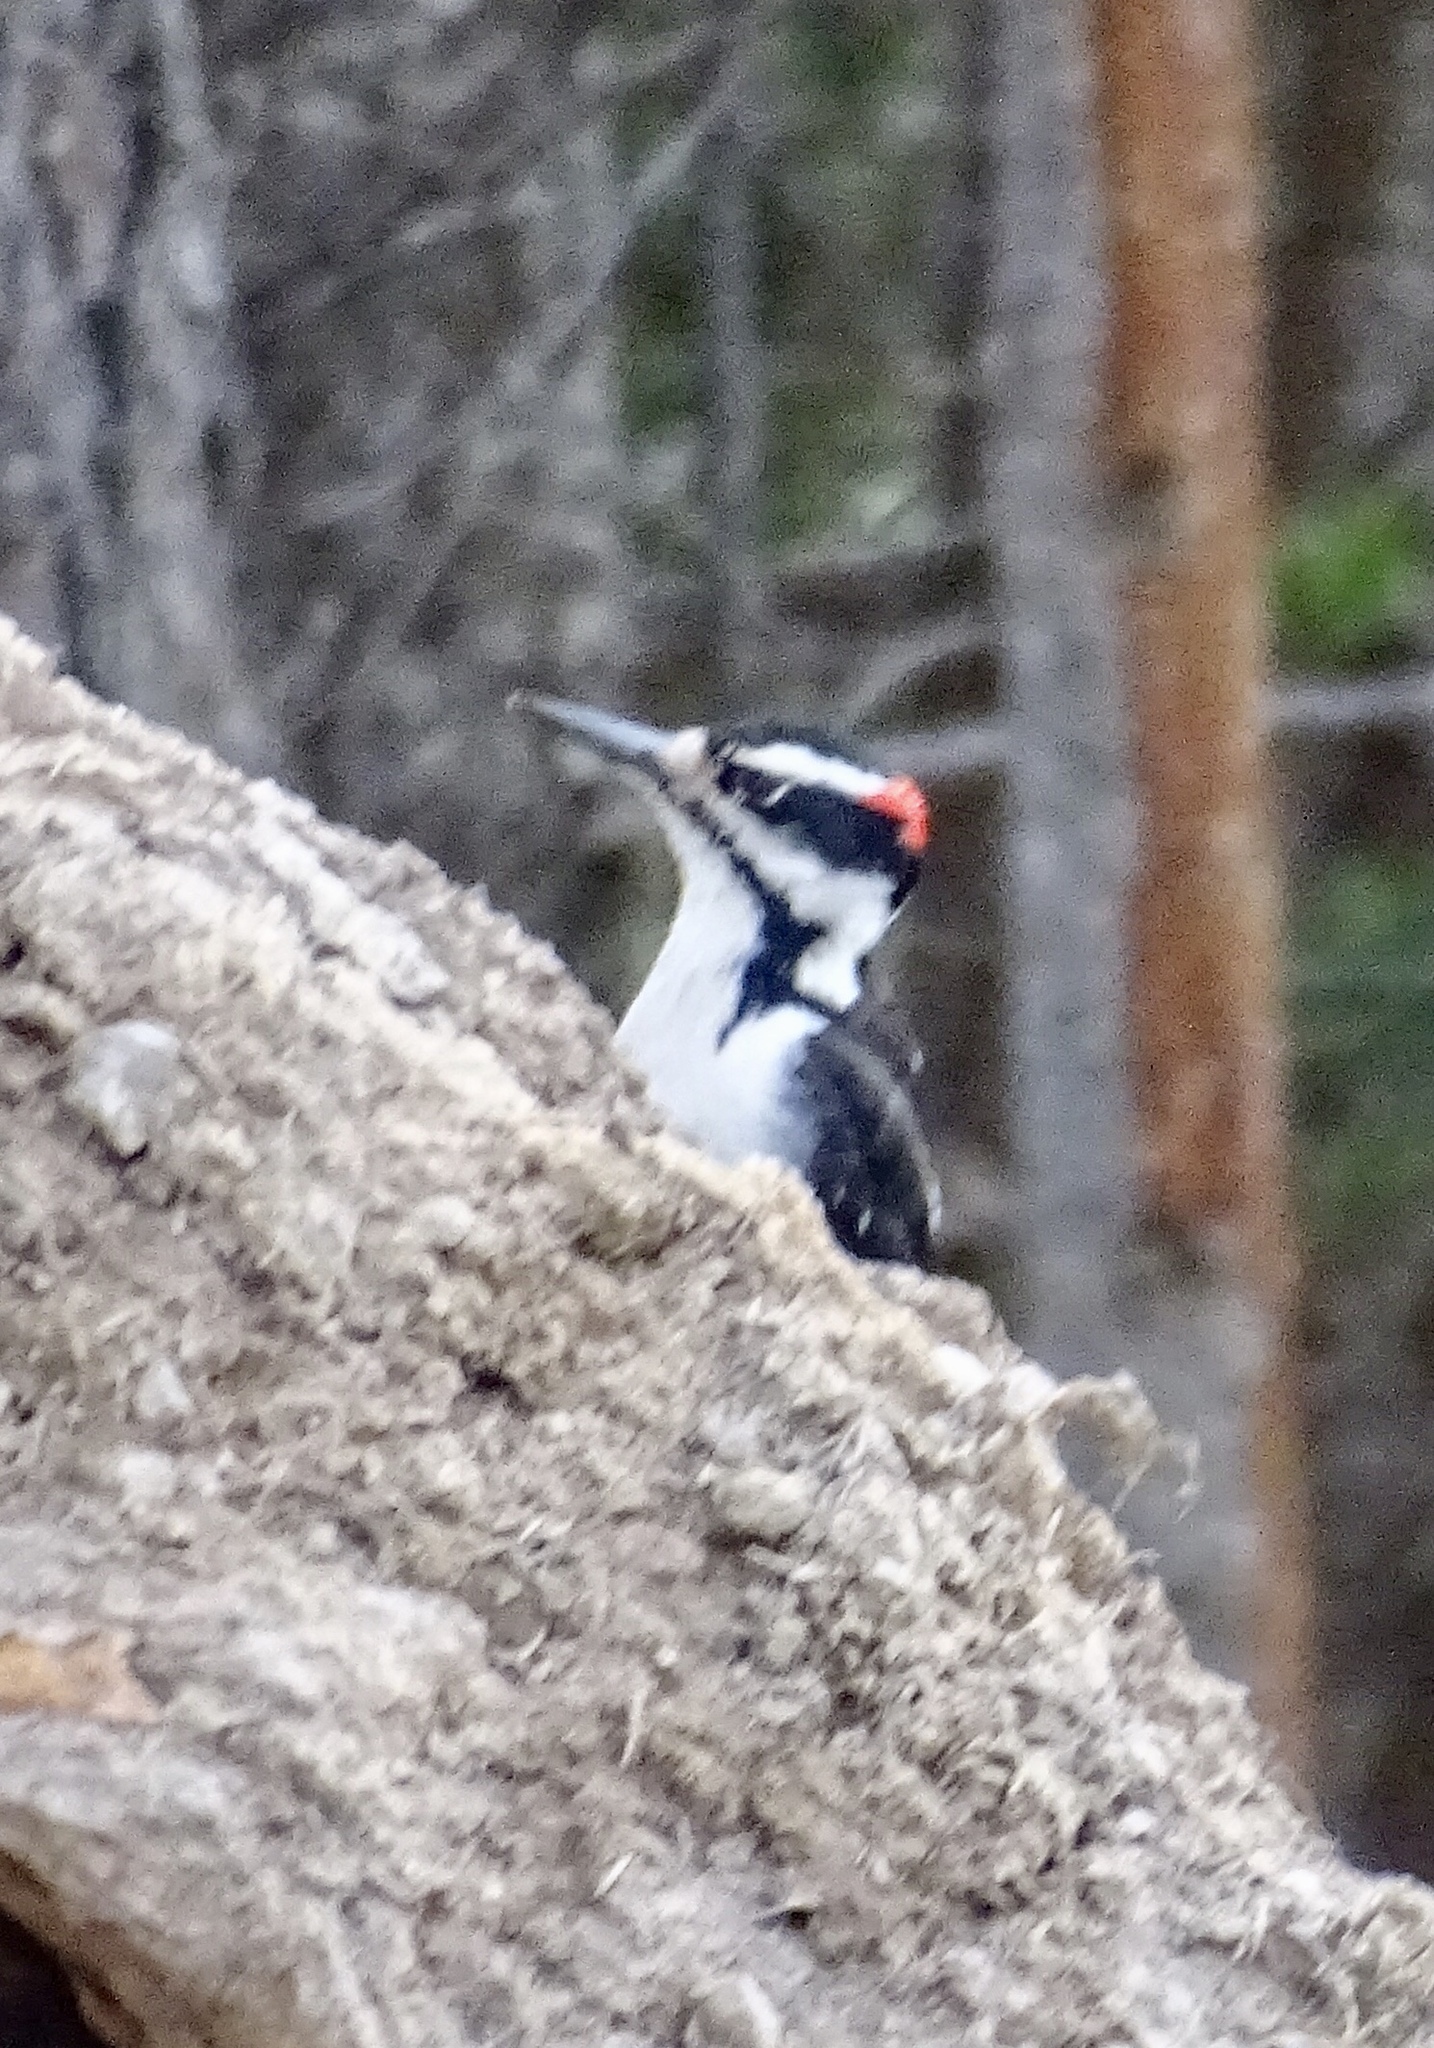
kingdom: Animalia
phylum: Chordata
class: Aves
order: Piciformes
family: Picidae
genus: Leuconotopicus
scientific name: Leuconotopicus villosus
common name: Hairy woodpecker
